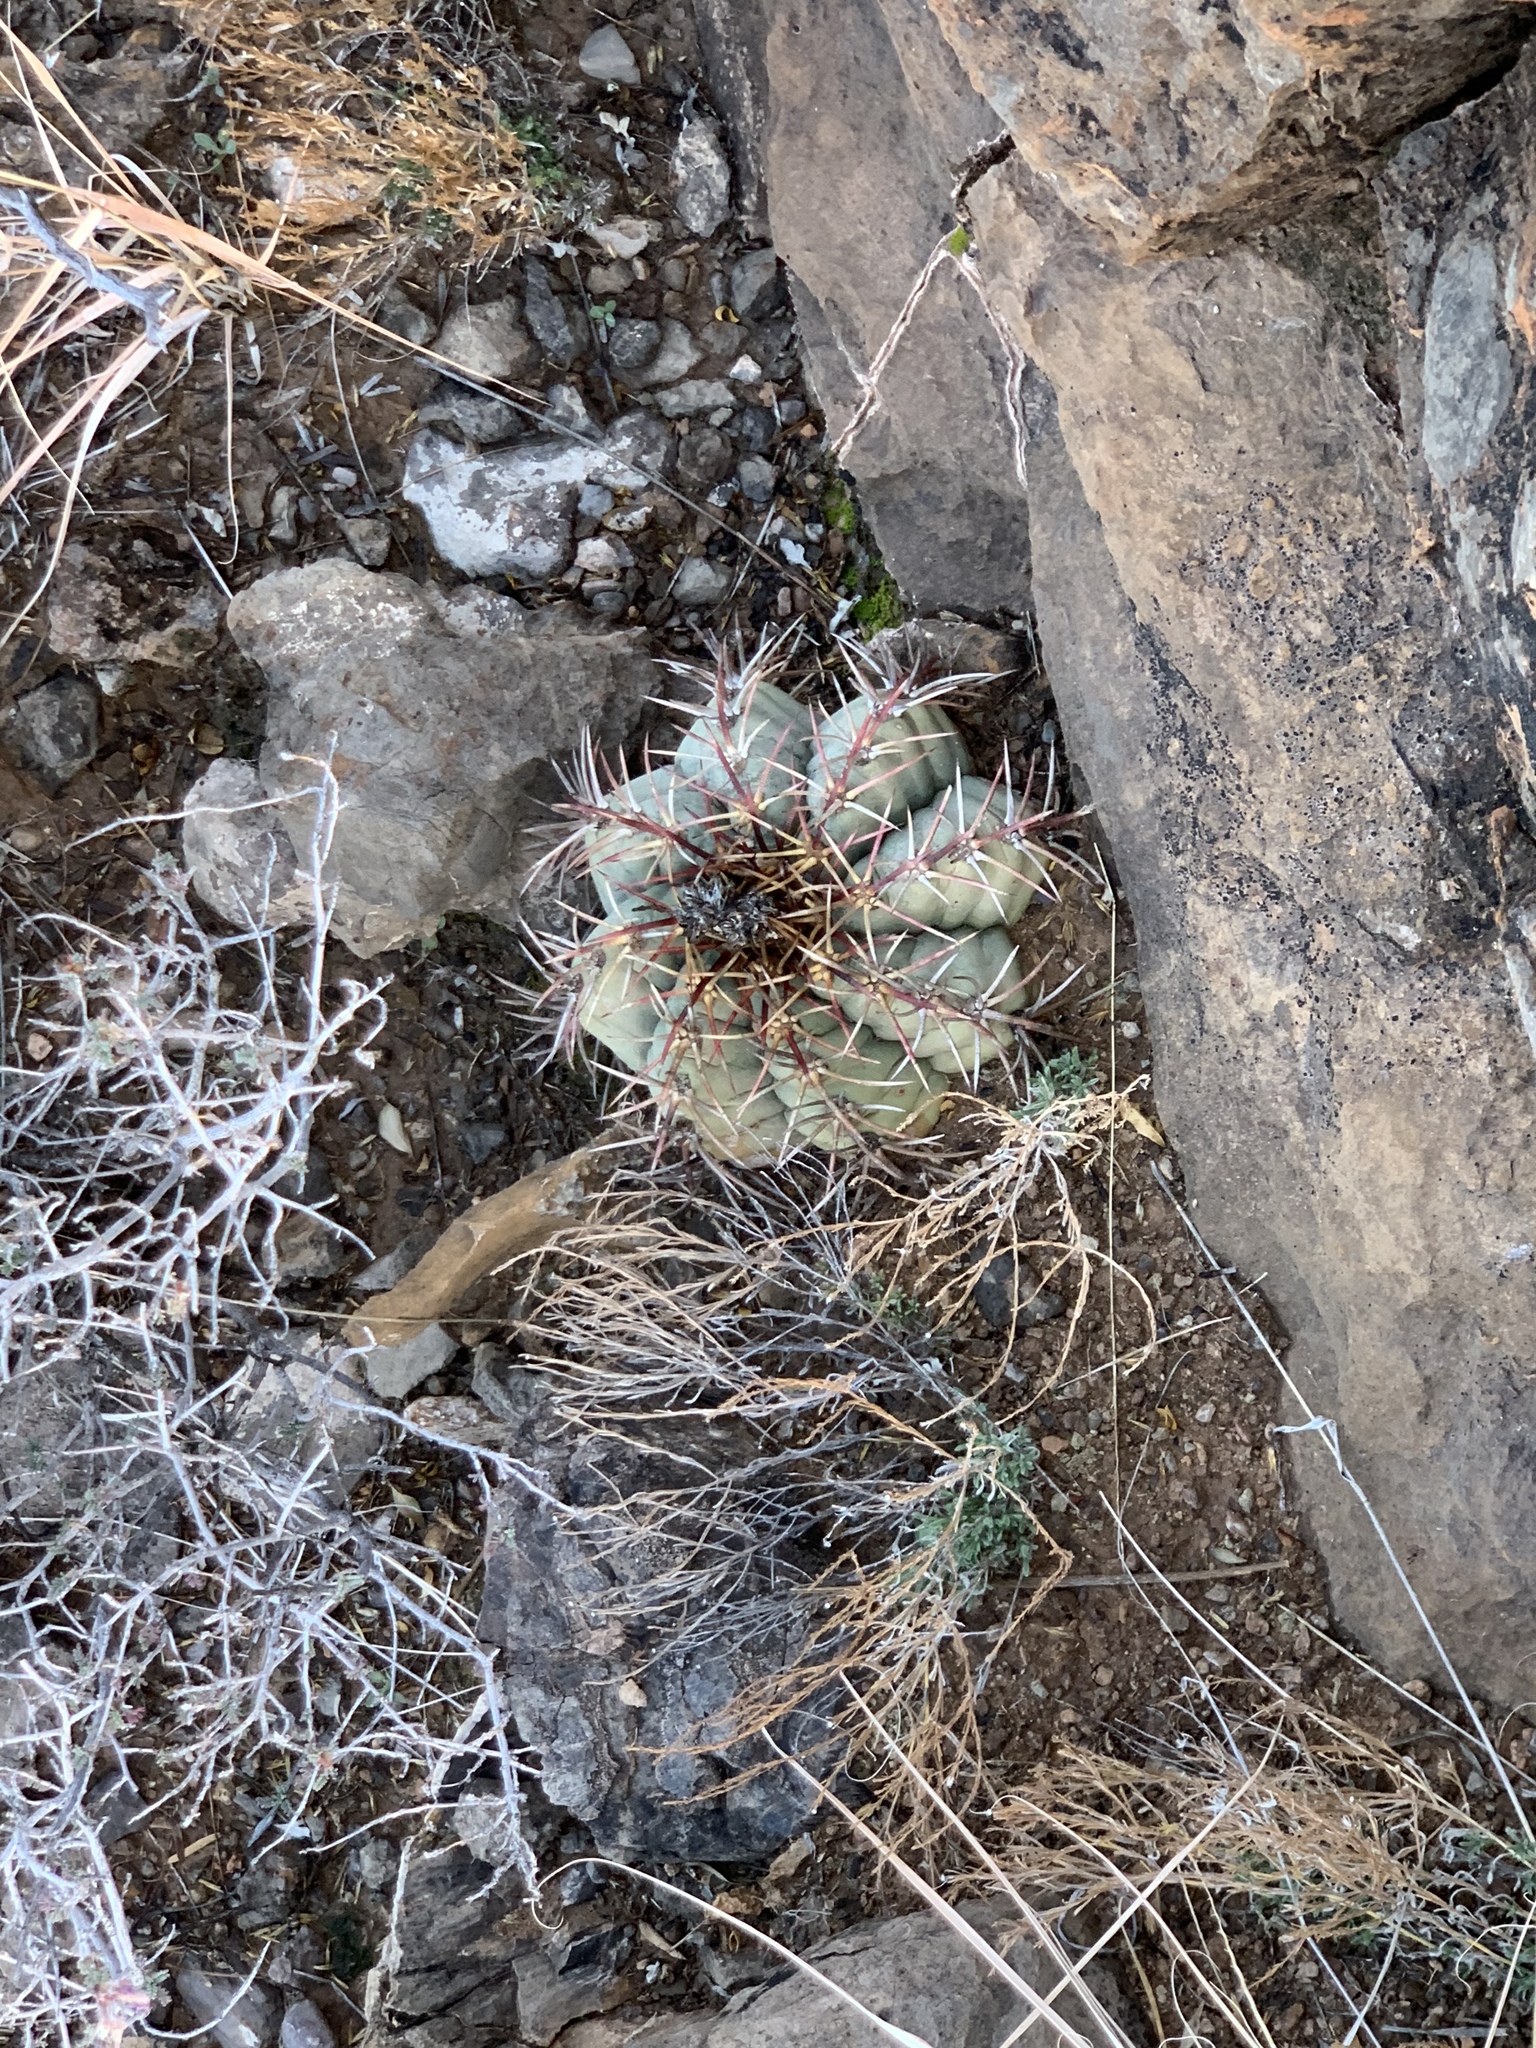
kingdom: Plantae
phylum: Tracheophyta
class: Magnoliopsida
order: Caryophyllales
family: Cactaceae
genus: Echinocactus
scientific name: Echinocactus horizonthalonius
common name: Devilshead
